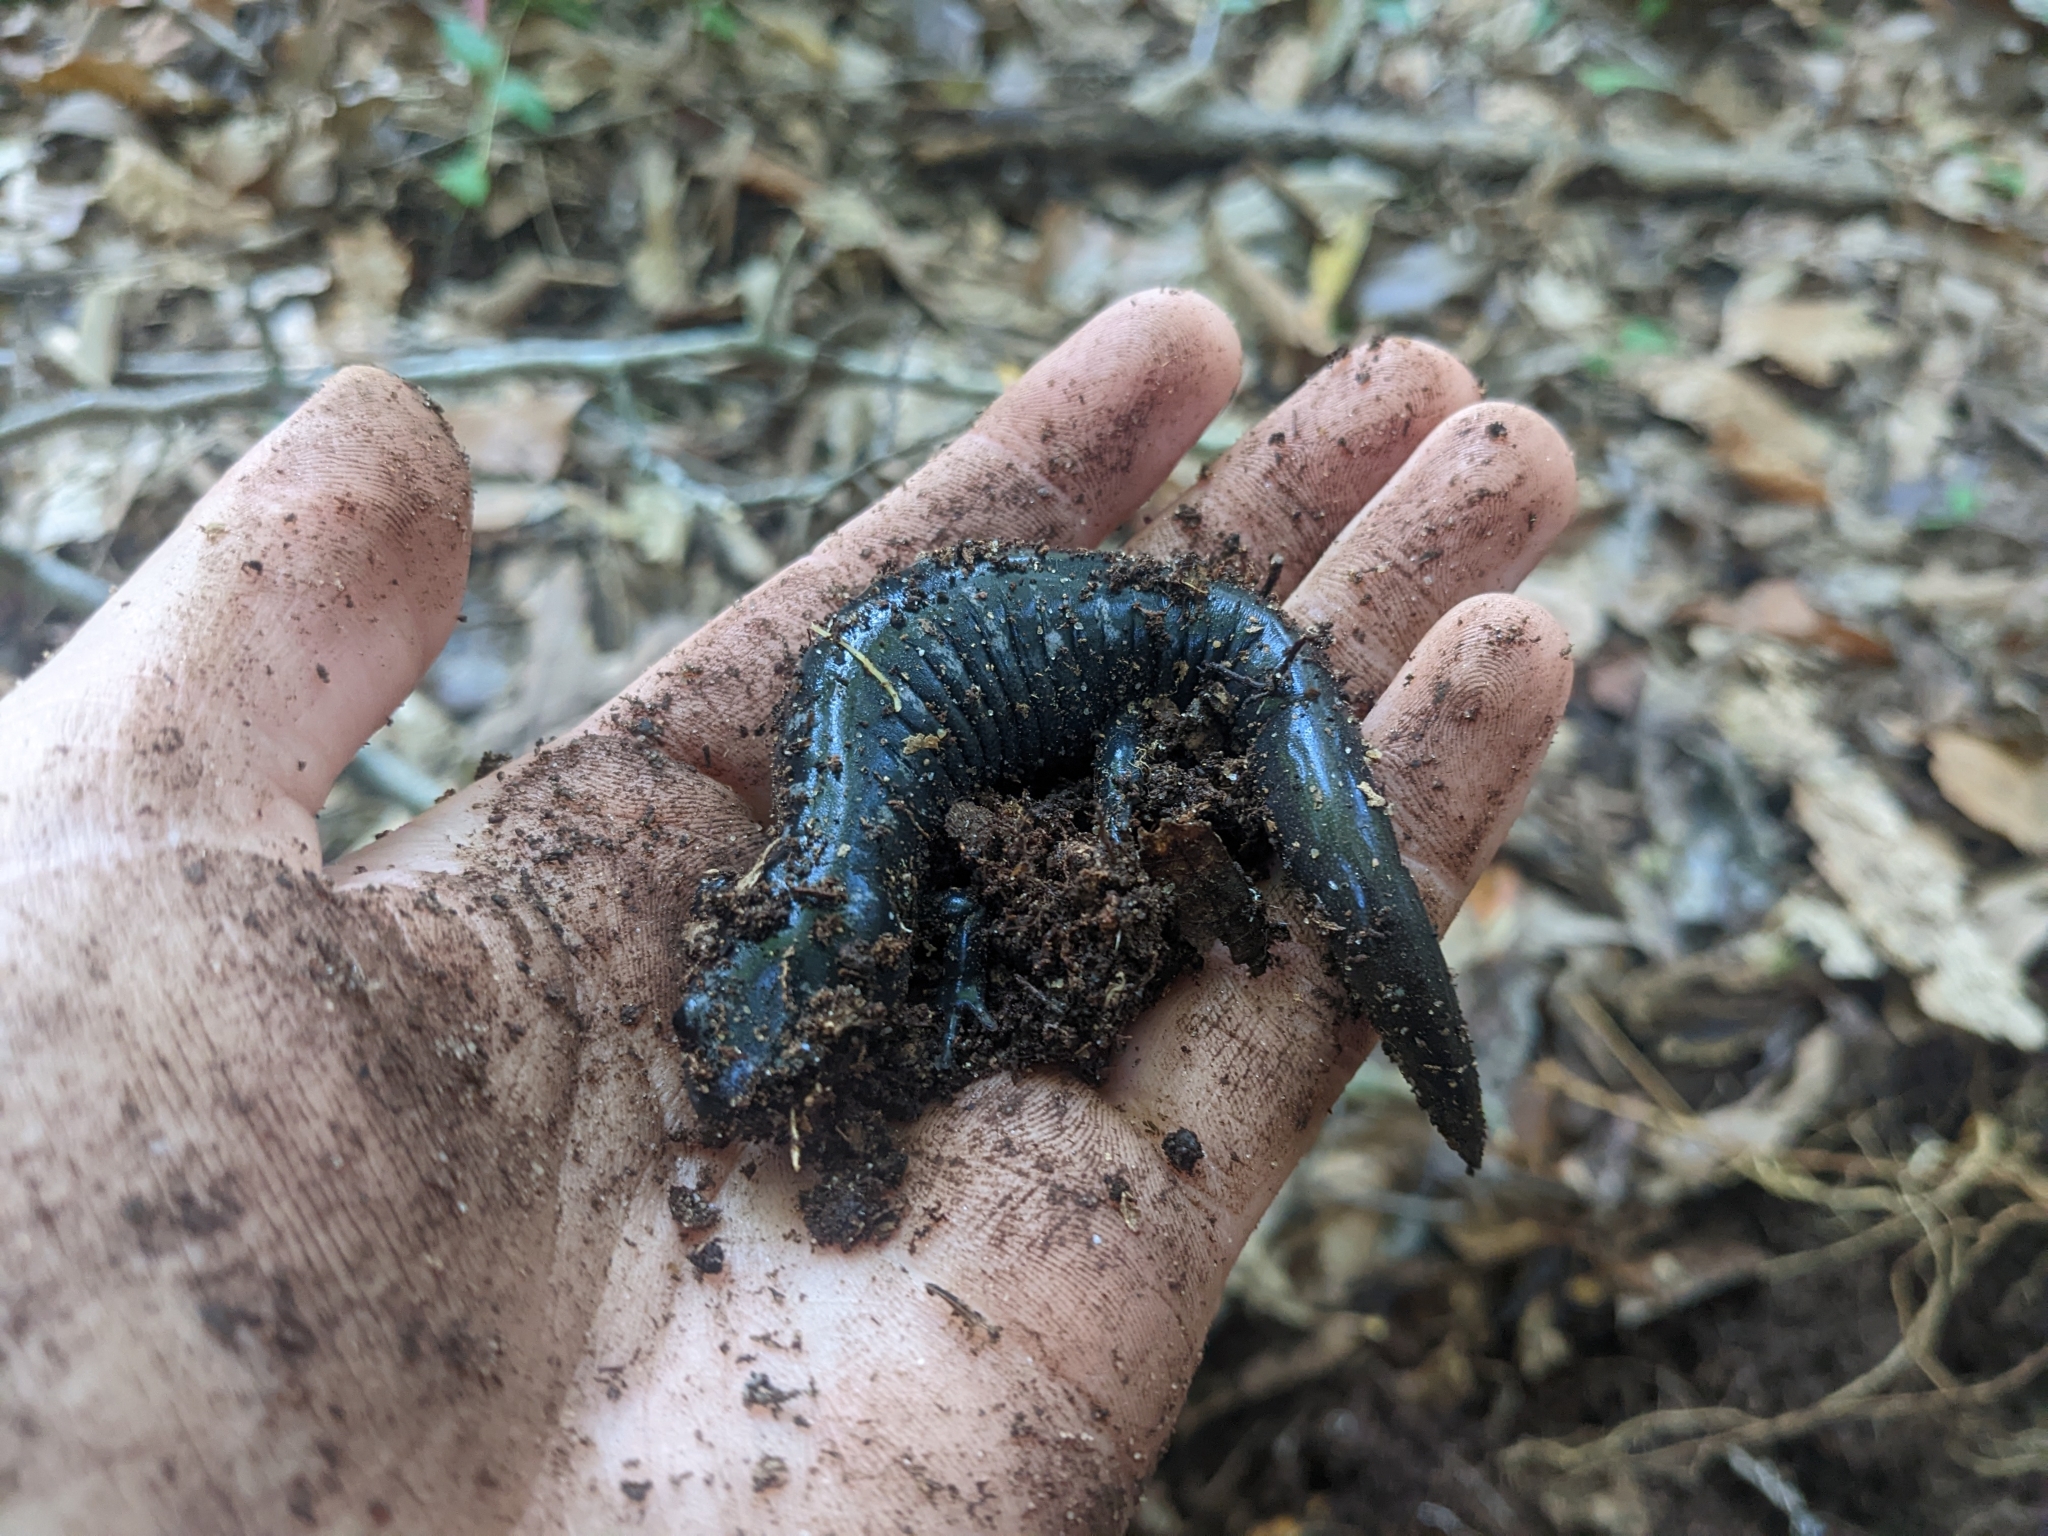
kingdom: Animalia
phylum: Chordata
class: Amphibia
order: Caudata
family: Ambystomatidae
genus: Ambystoma
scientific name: Ambystoma opacum
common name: Marbled salamander
